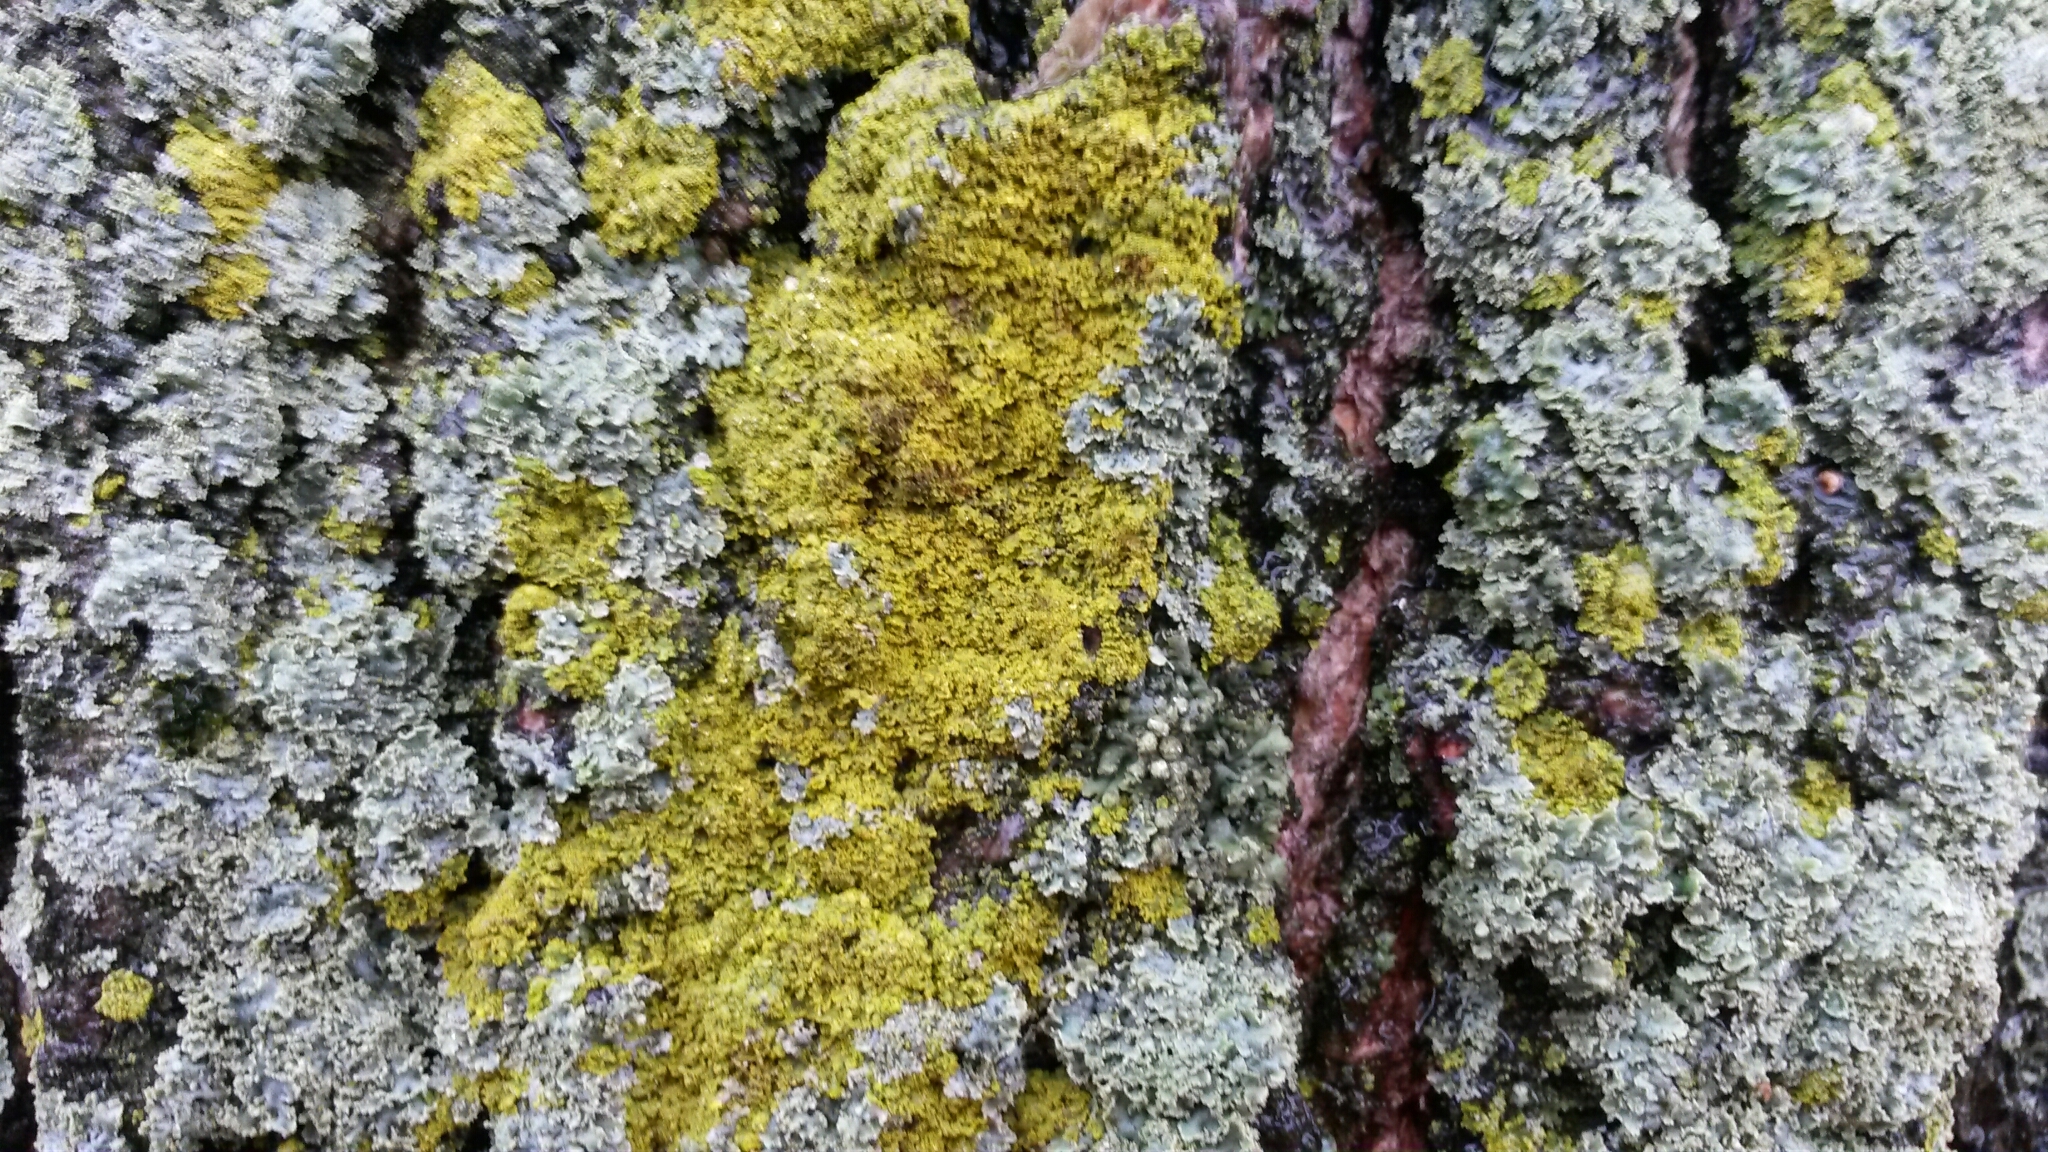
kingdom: Fungi
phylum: Ascomycota
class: Candelariomycetes
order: Candelariales
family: Candelariaceae
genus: Candelaria
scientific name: Candelaria concolor
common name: Candleflame lichen
